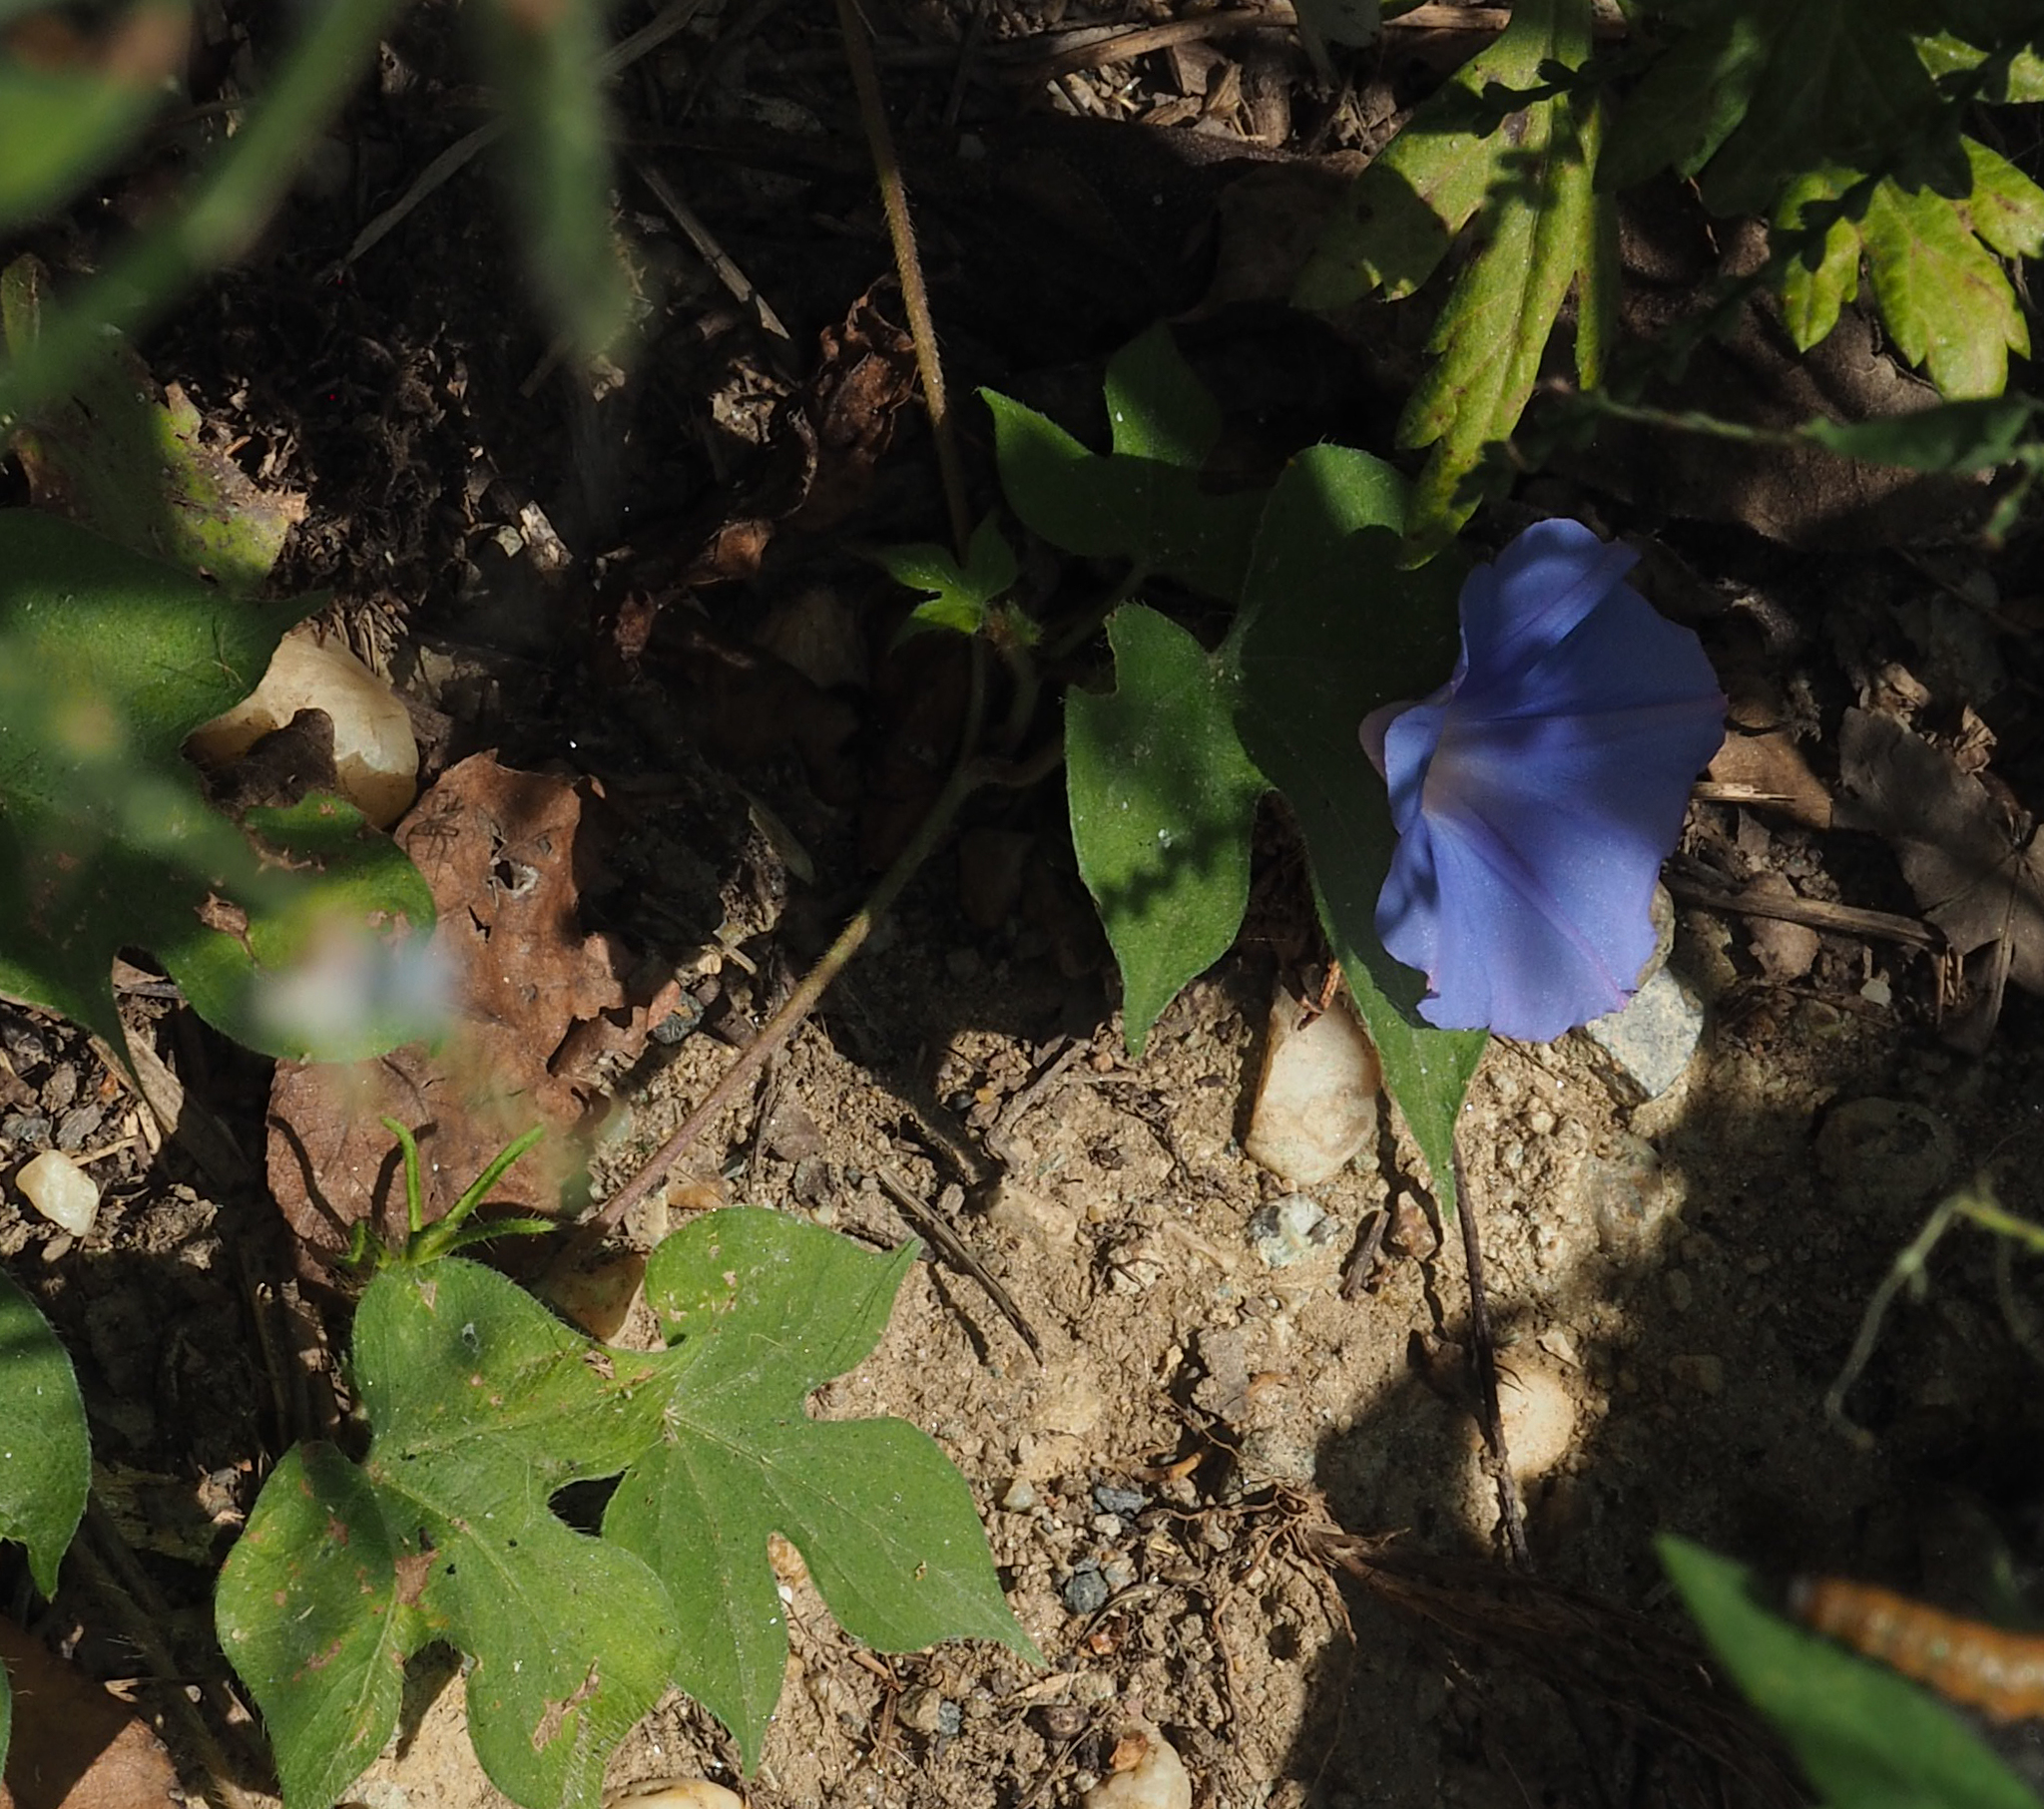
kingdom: Plantae
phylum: Tracheophyta
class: Magnoliopsida
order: Solanales
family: Convolvulaceae
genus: Ipomoea
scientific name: Ipomoea hederacea
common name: Ivy-leaved morning-glory
